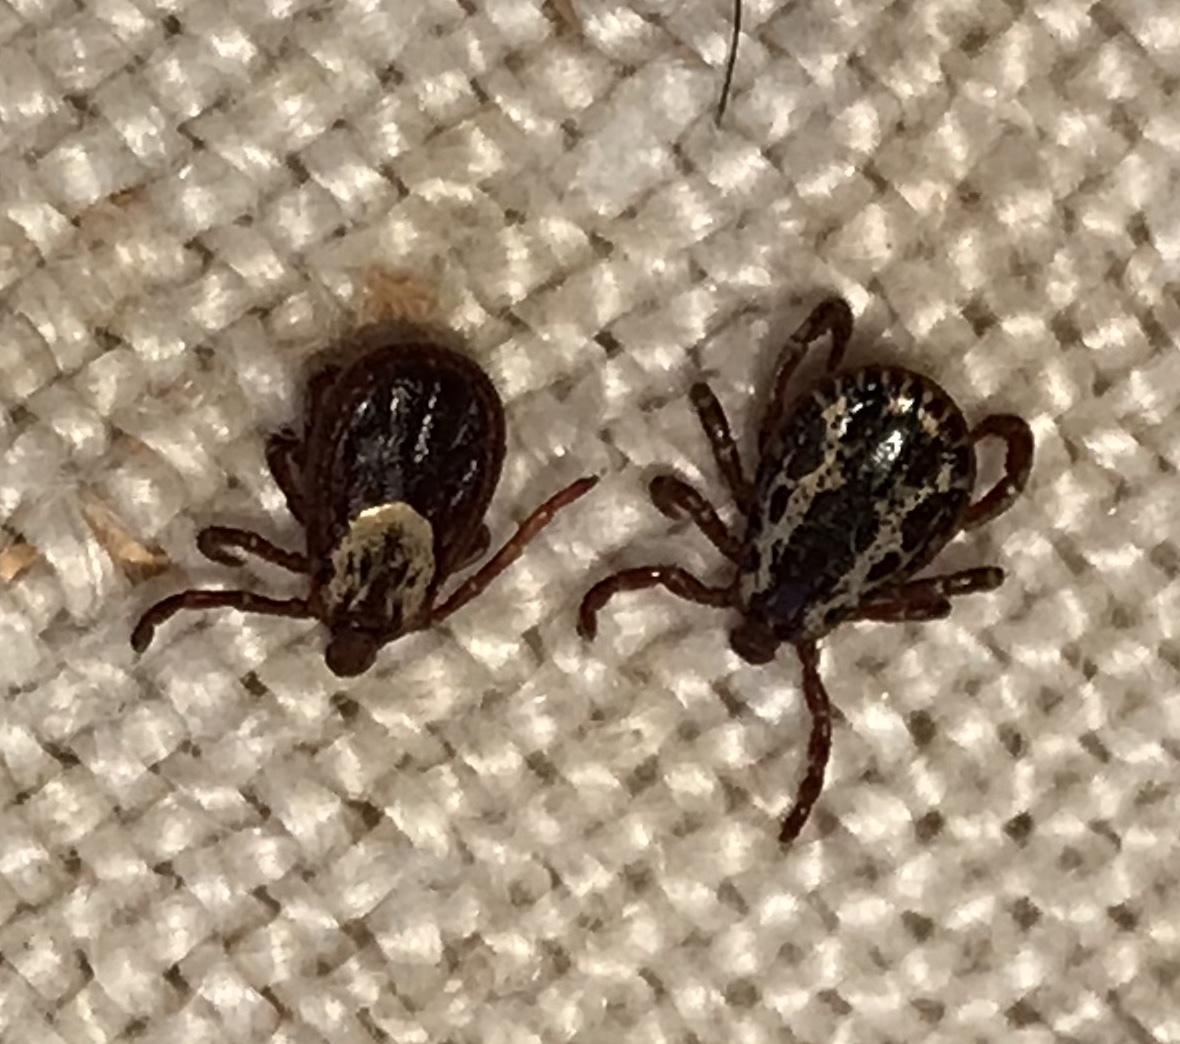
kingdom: Animalia
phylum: Arthropoda
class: Arachnida
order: Ixodida
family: Ixodidae
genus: Dermacentor
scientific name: Dermacentor variabilis
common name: American dog tick
